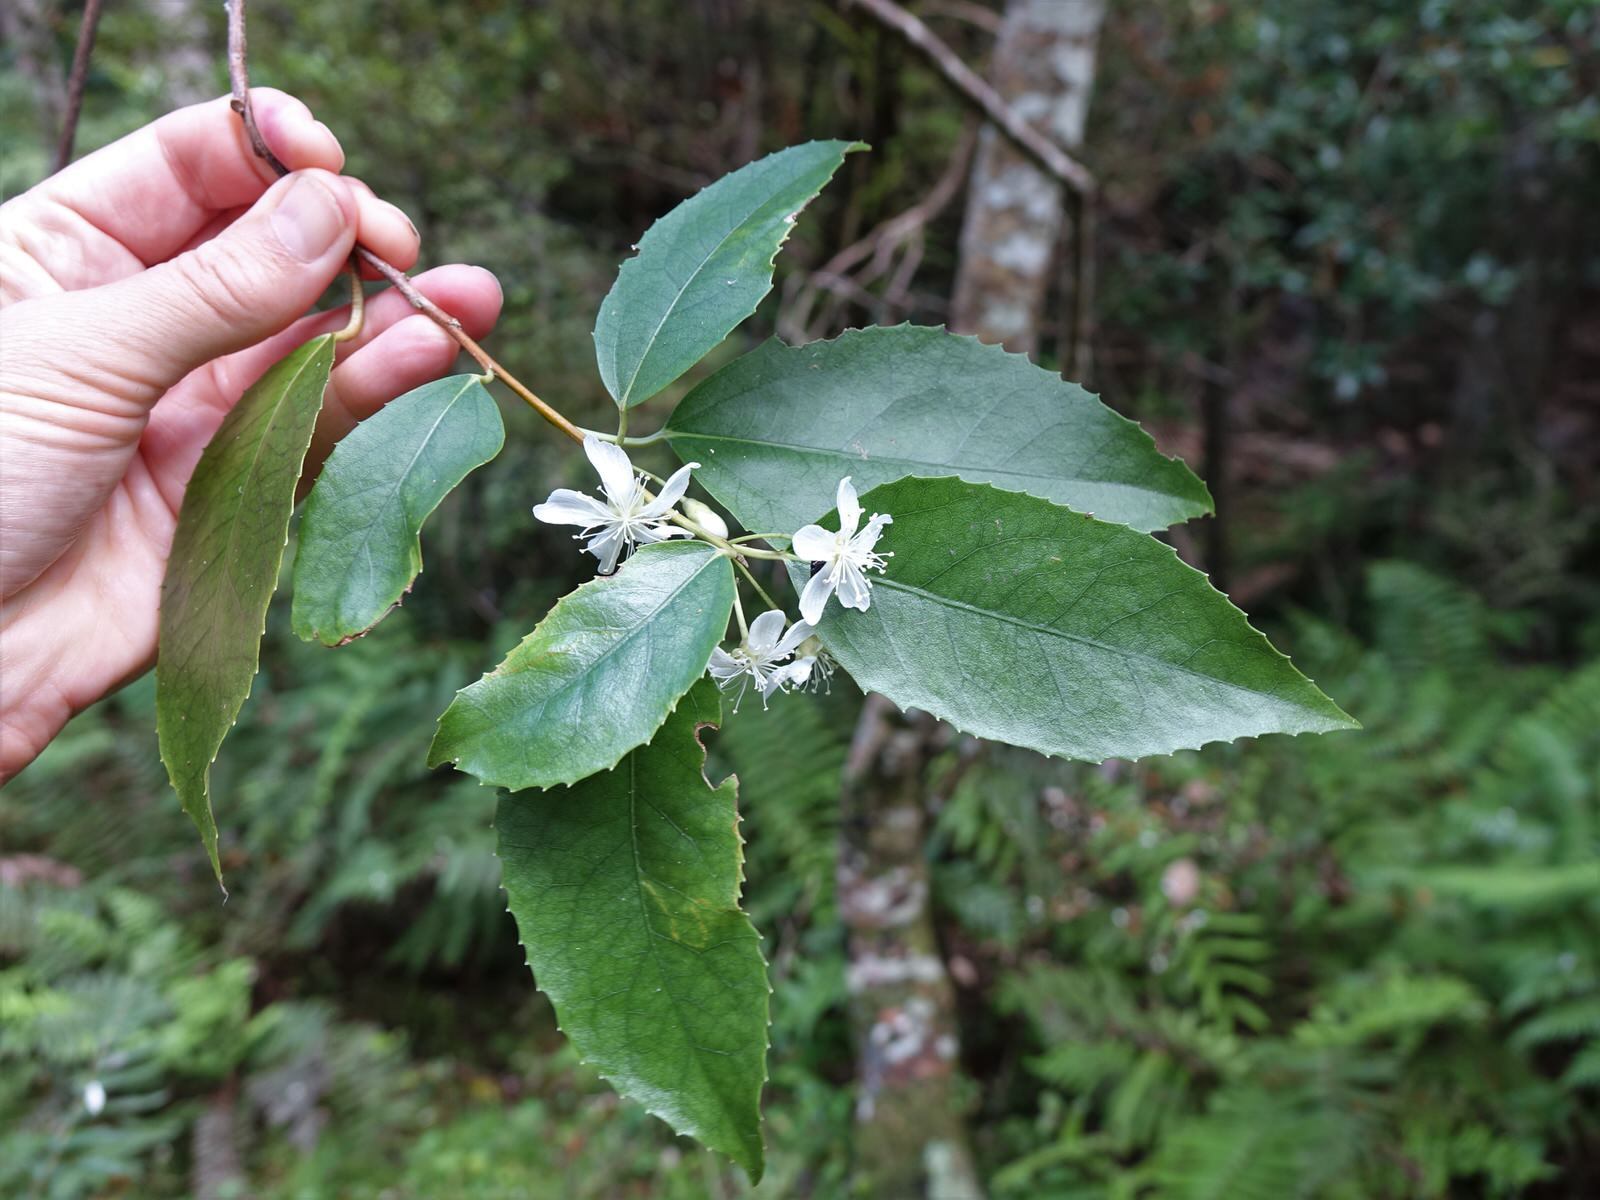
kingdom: Plantae
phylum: Tracheophyta
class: Magnoliopsida
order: Malvales
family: Malvaceae
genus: Hoheria
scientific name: Hoheria populnea
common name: Lacebark
